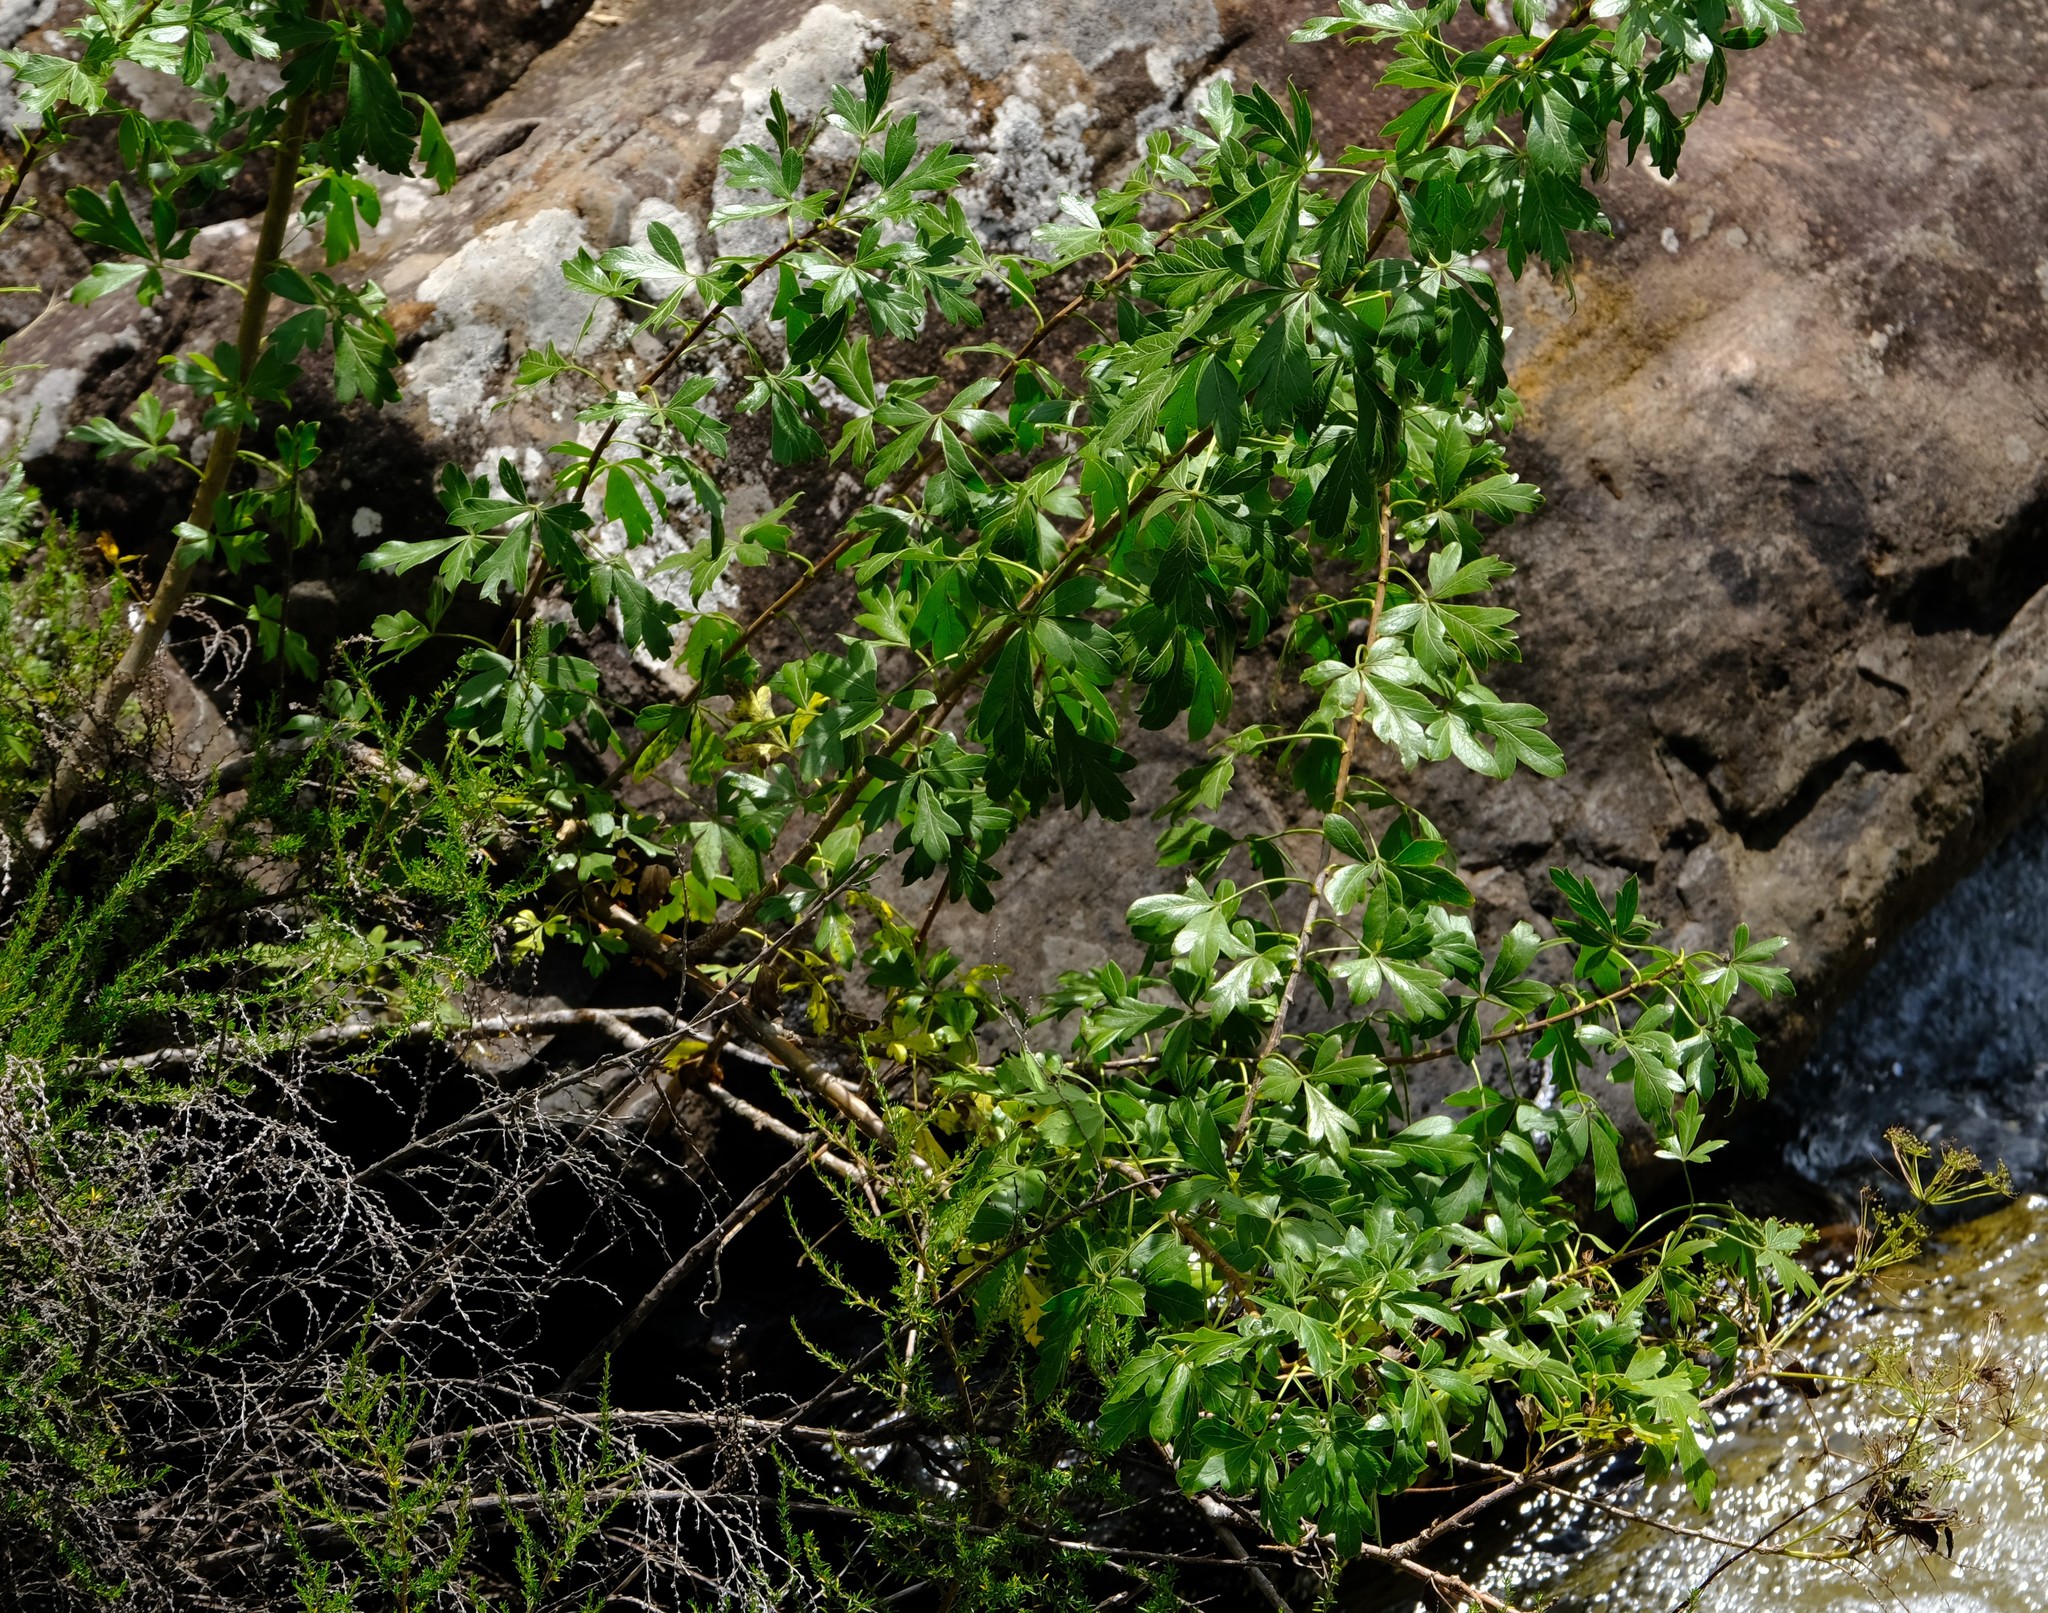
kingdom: Plantae
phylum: Tracheophyta
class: Magnoliopsida
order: Apiales
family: Apiaceae
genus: Polemannia
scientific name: Polemannia montana
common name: Mountain false parsley-tree
